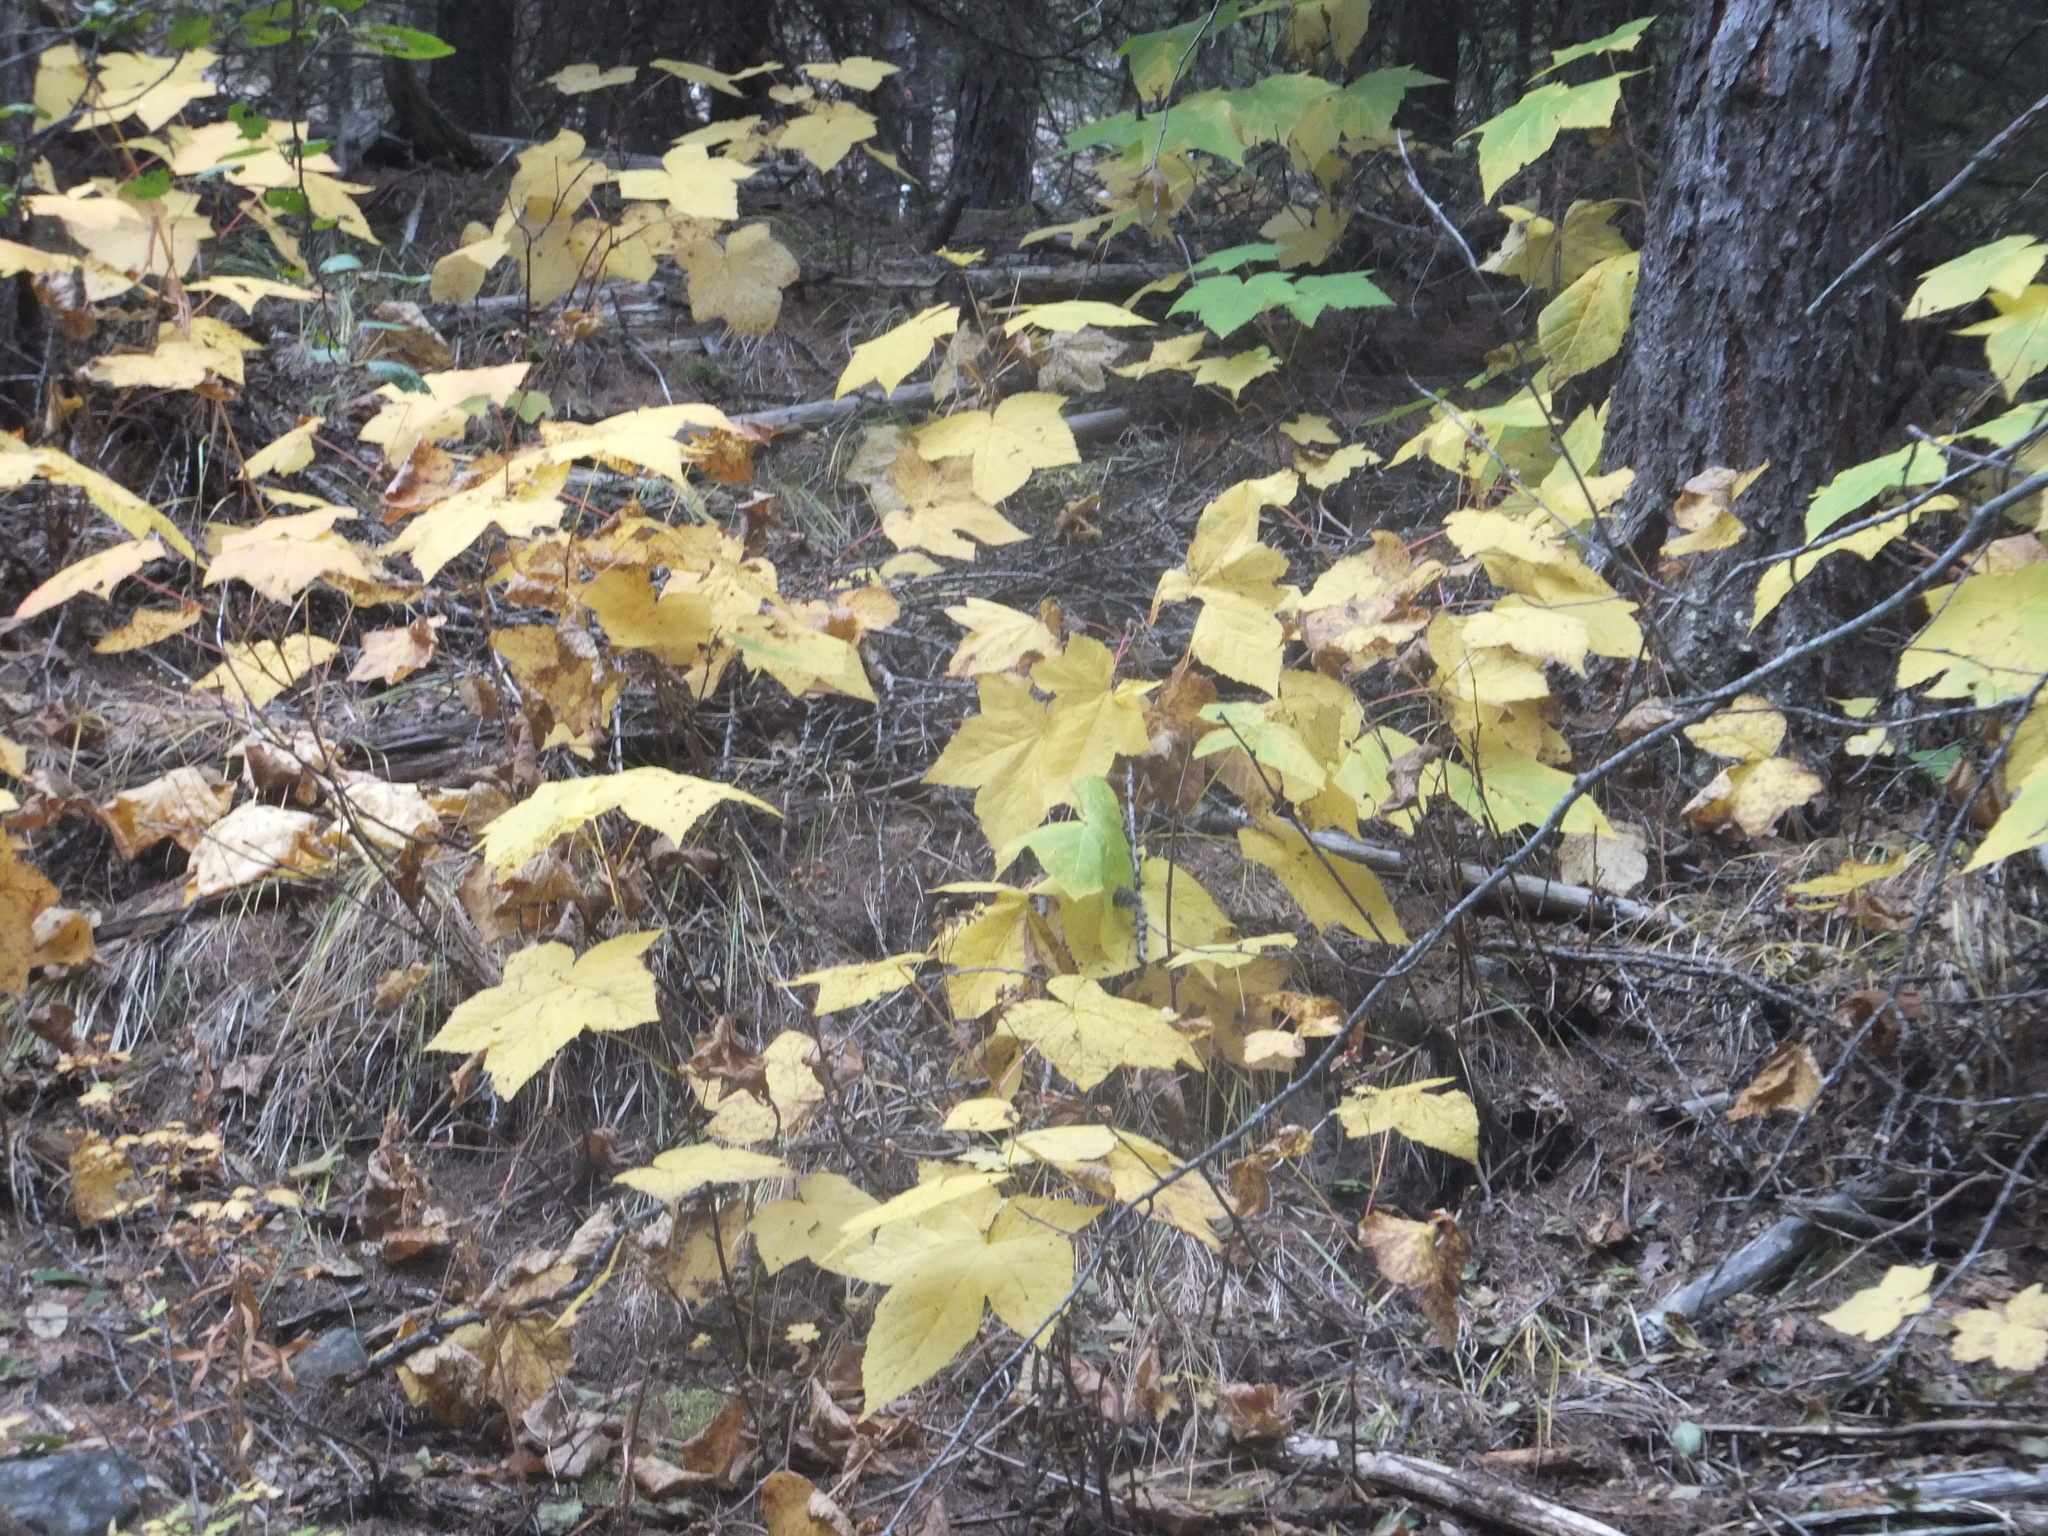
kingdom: Plantae
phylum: Tracheophyta
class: Magnoliopsida
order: Rosales
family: Rosaceae
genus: Rubus
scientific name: Rubus parviflorus
